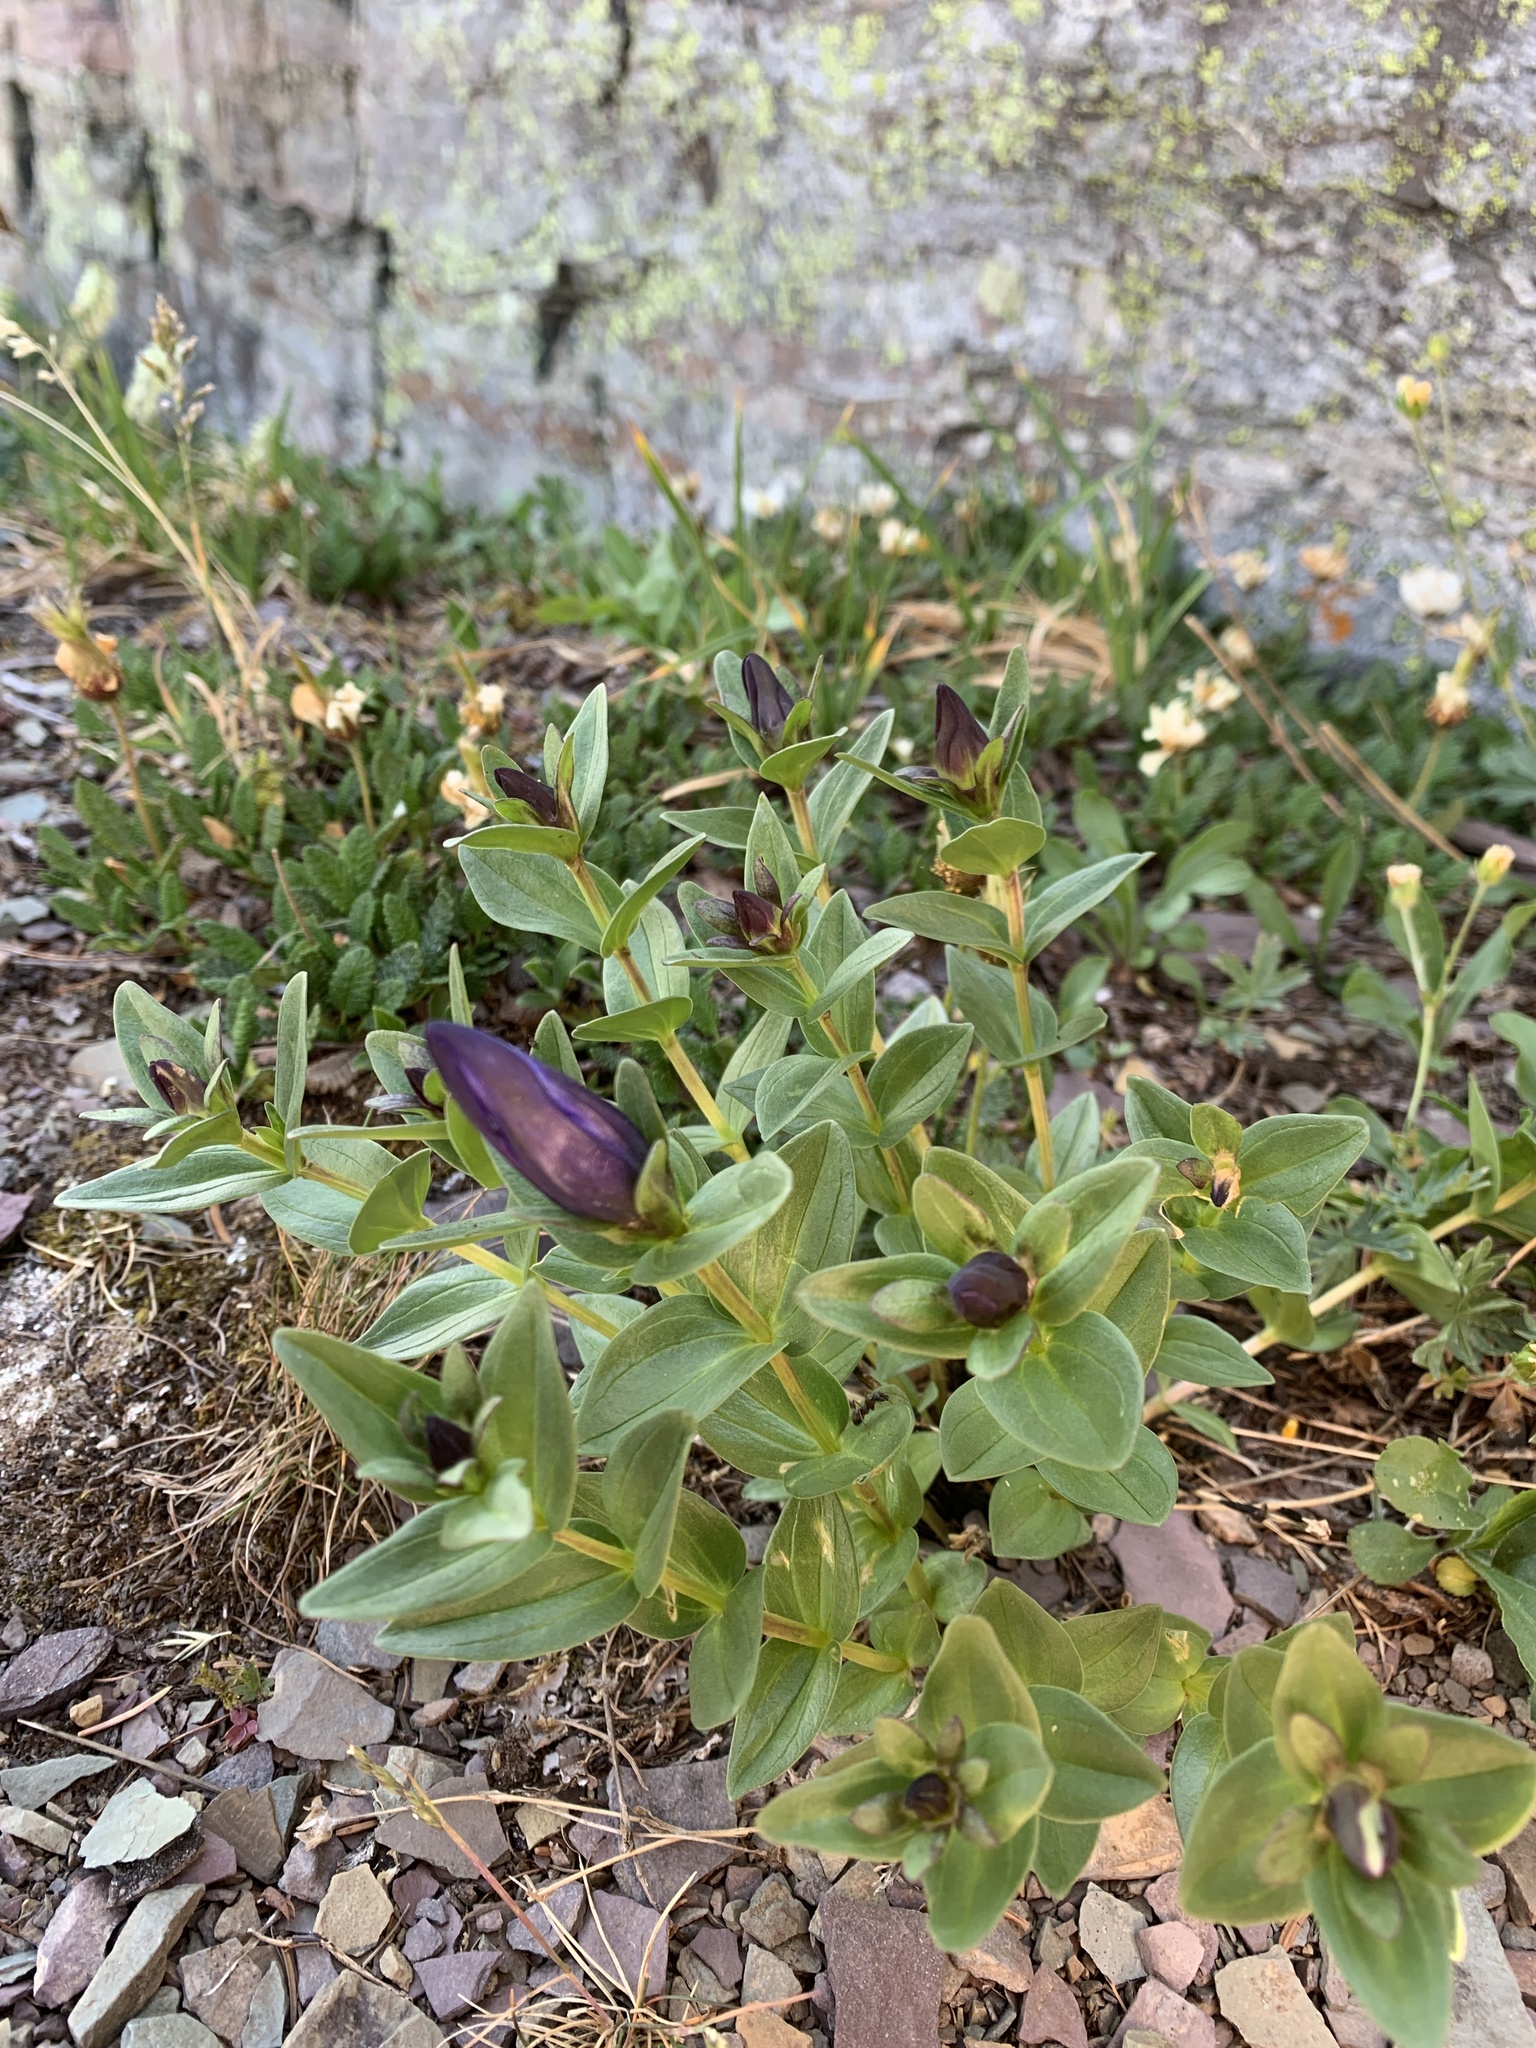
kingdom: Plantae
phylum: Tracheophyta
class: Magnoliopsida
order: Gentianales
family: Gentianaceae
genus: Gentiana
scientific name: Gentiana calycosa
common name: Rainier pleated gentian
